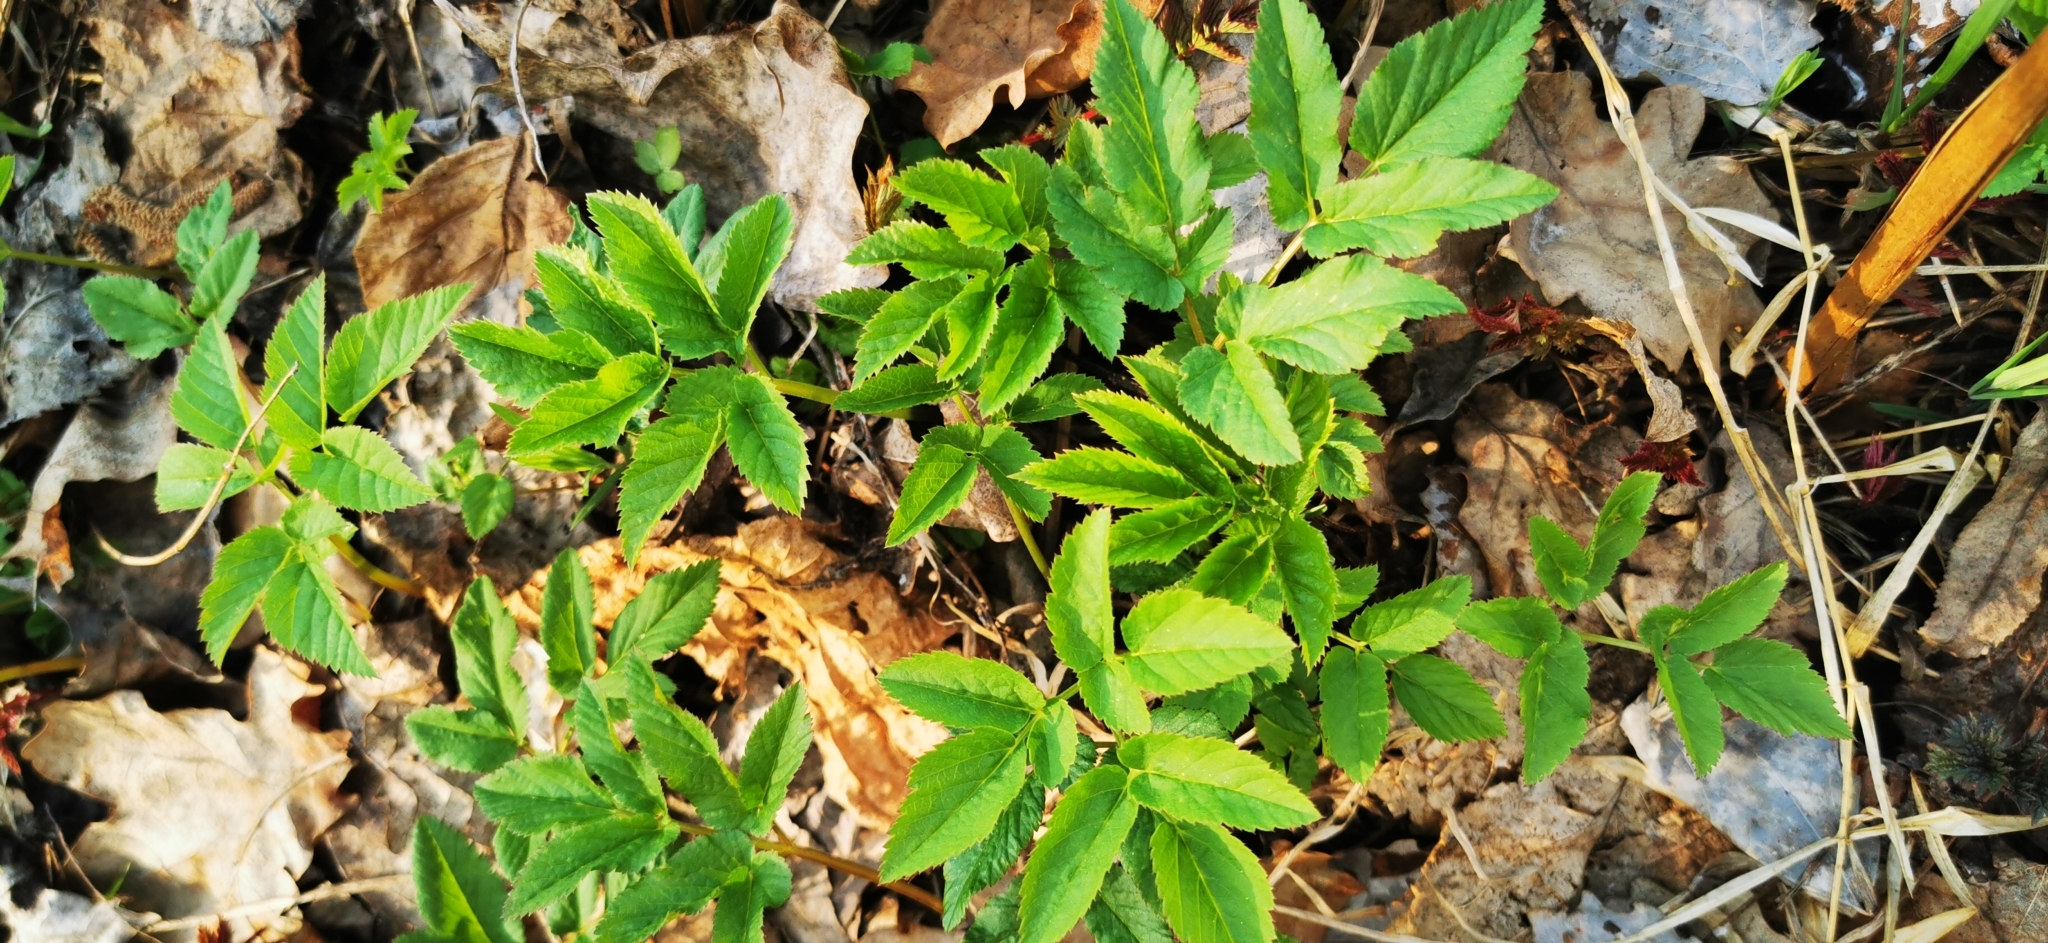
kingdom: Plantae
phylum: Tracheophyta
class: Magnoliopsida
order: Apiales
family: Apiaceae
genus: Aegopodium
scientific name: Aegopodium podagraria
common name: Ground-elder
